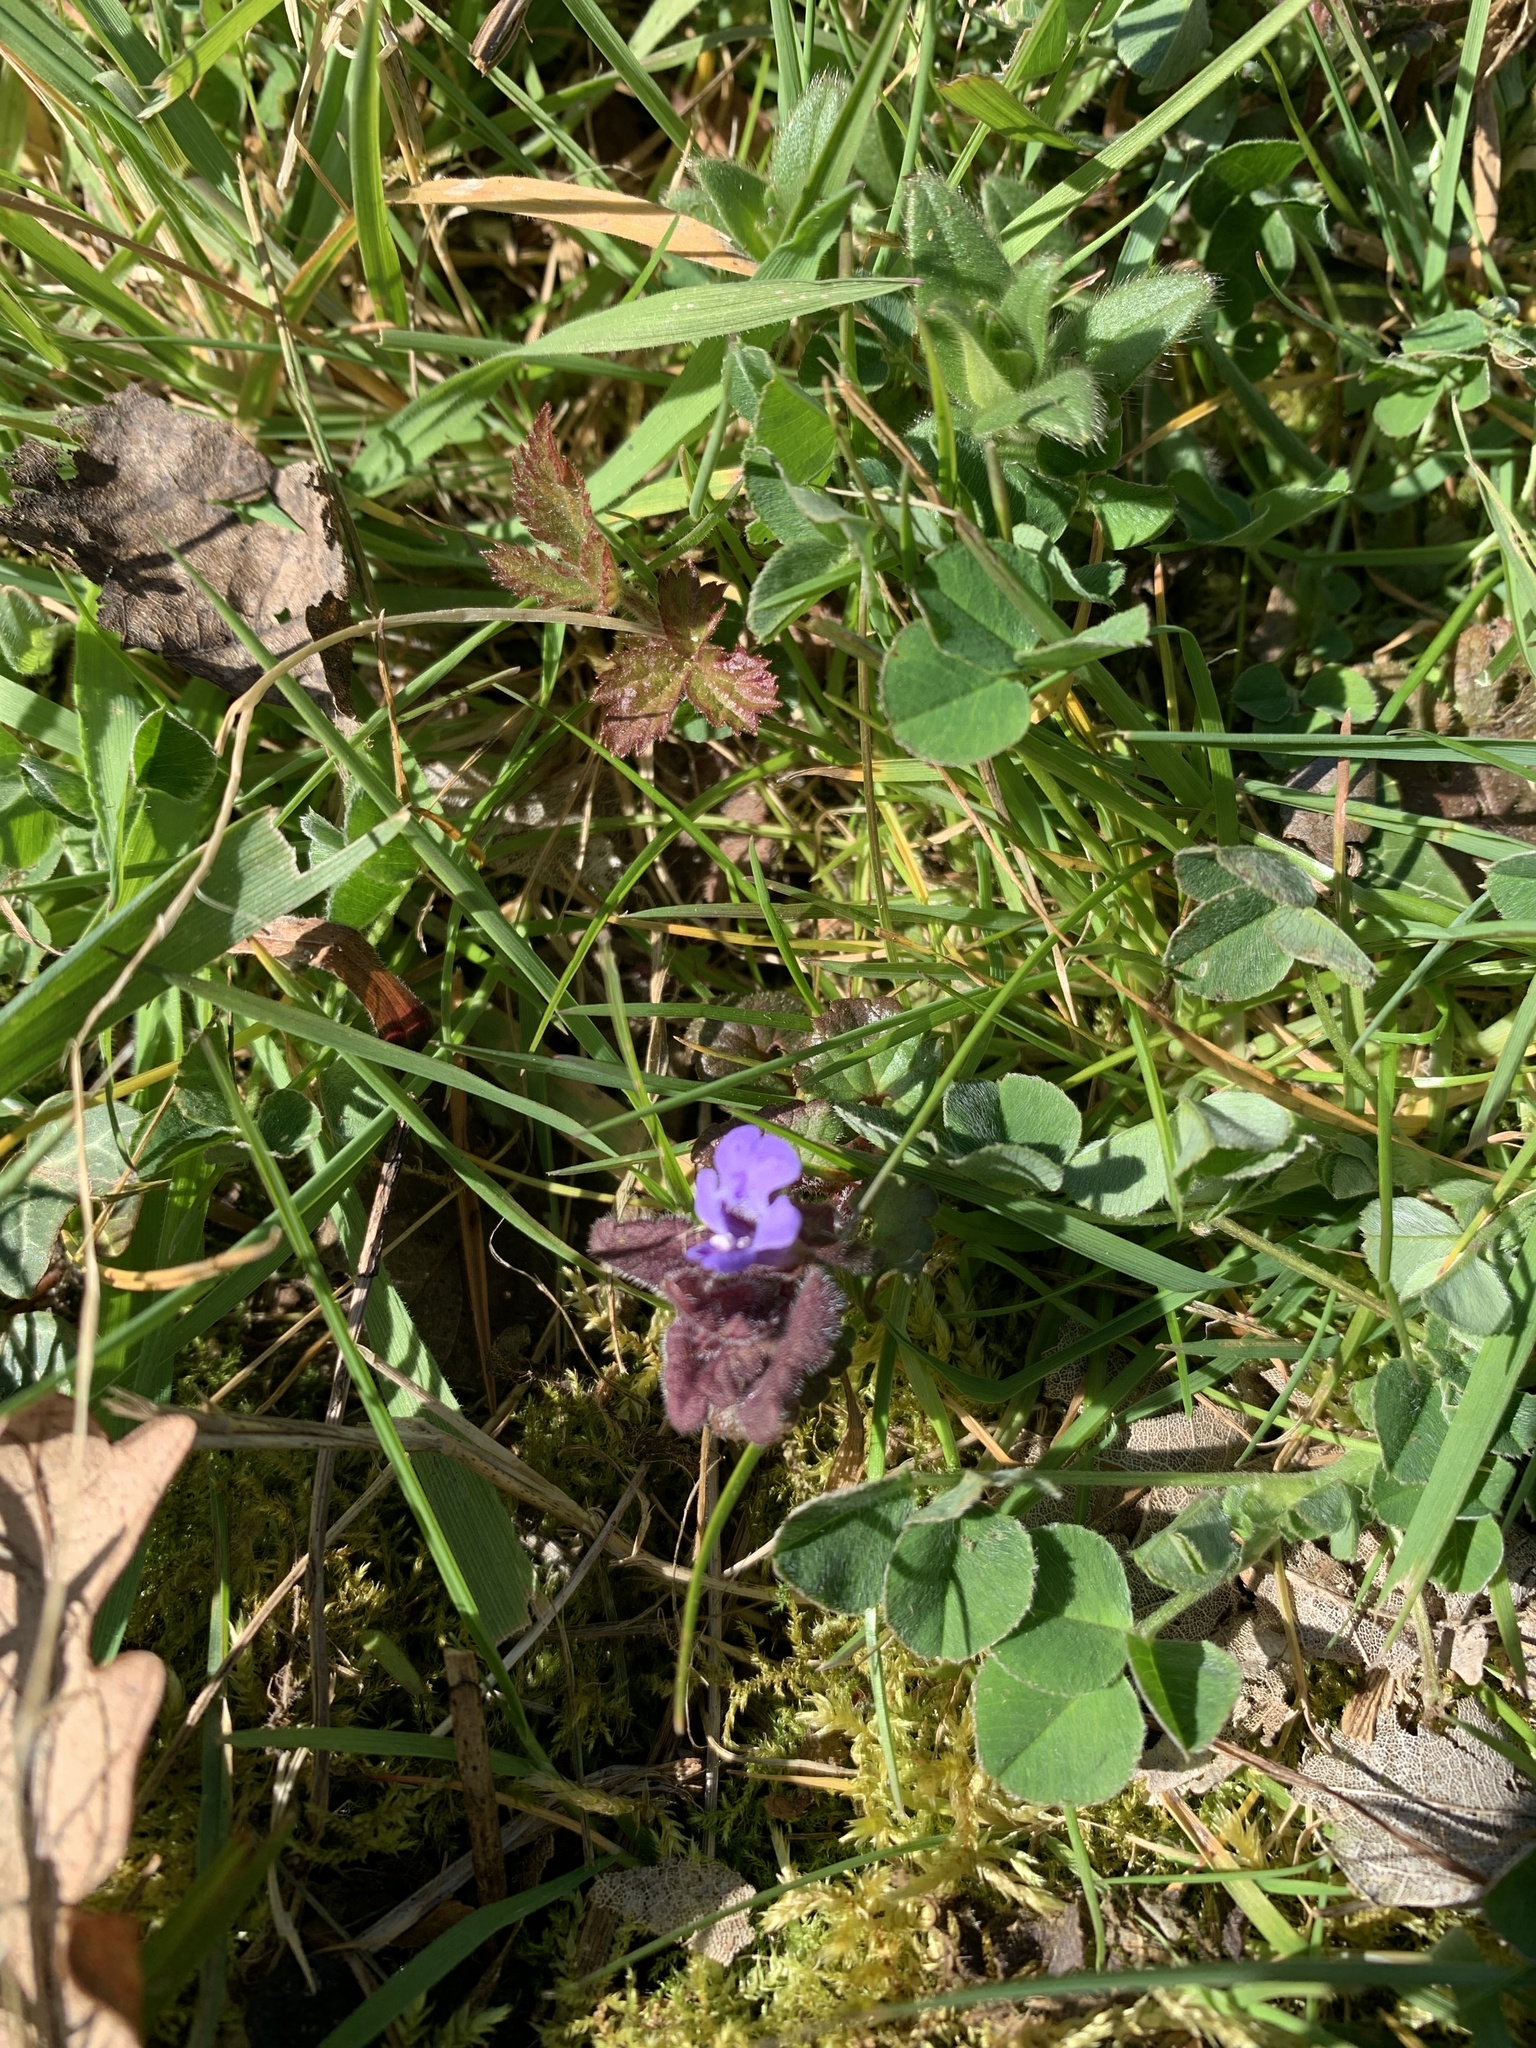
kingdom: Plantae
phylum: Tracheophyta
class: Magnoliopsida
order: Lamiales
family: Lamiaceae
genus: Glechoma
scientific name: Glechoma hederacea
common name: Ground ivy
